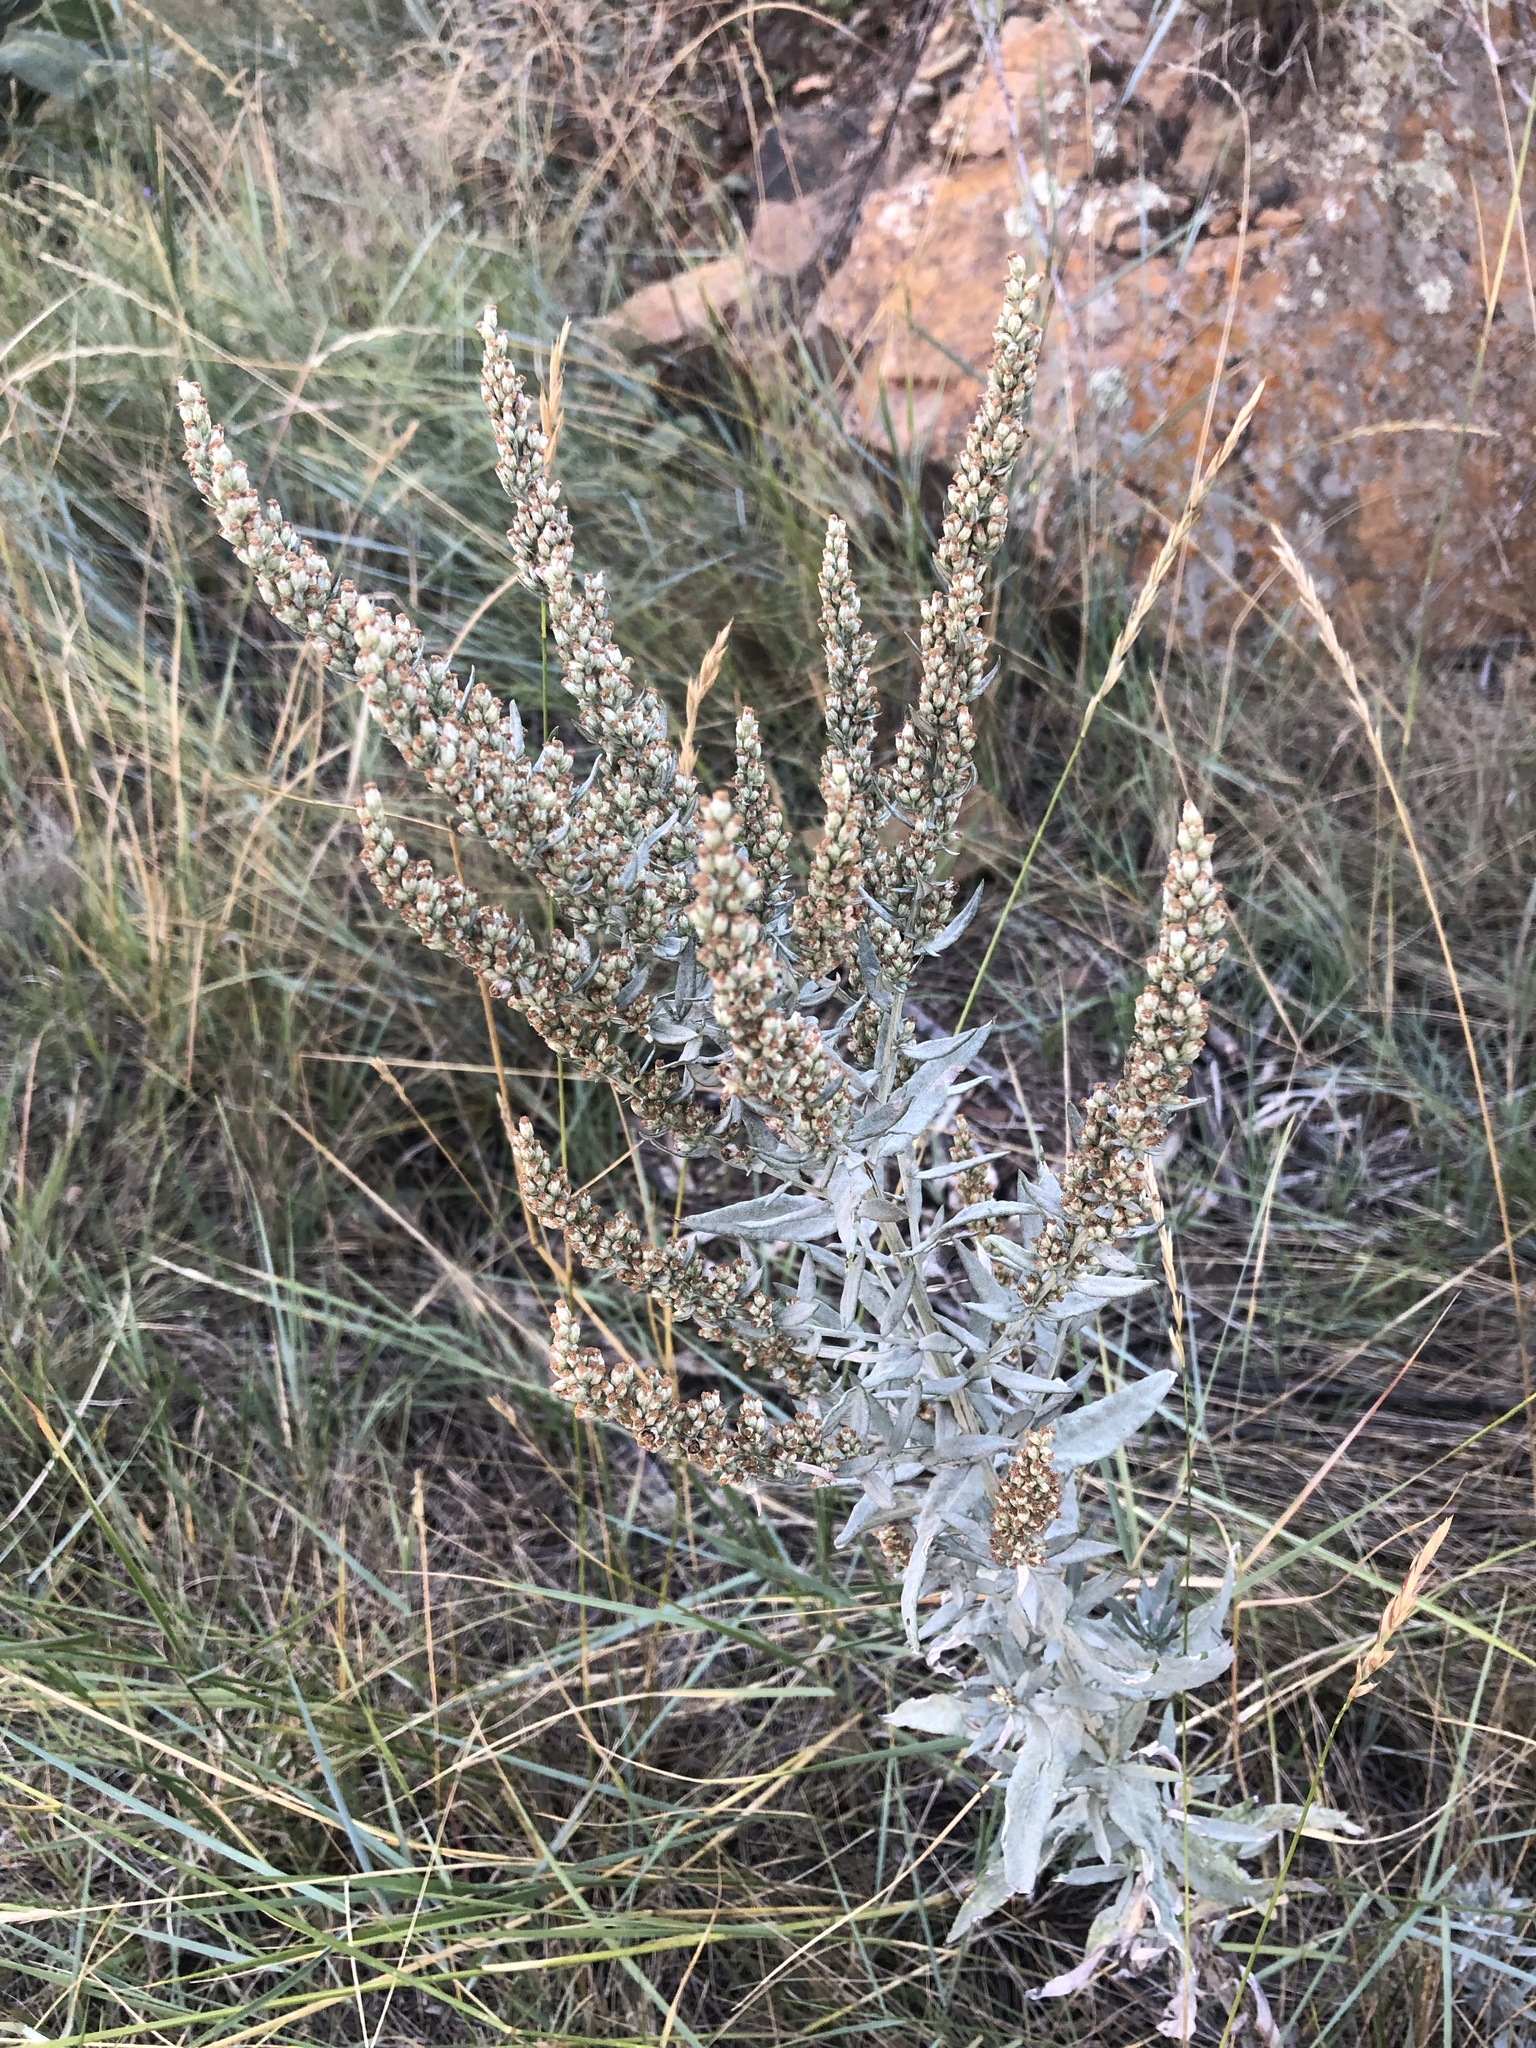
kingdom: Plantae
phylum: Tracheophyta
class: Magnoliopsida
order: Asterales
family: Asteraceae
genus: Artemisia
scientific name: Artemisia ludoviciana
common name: Western mugwort
